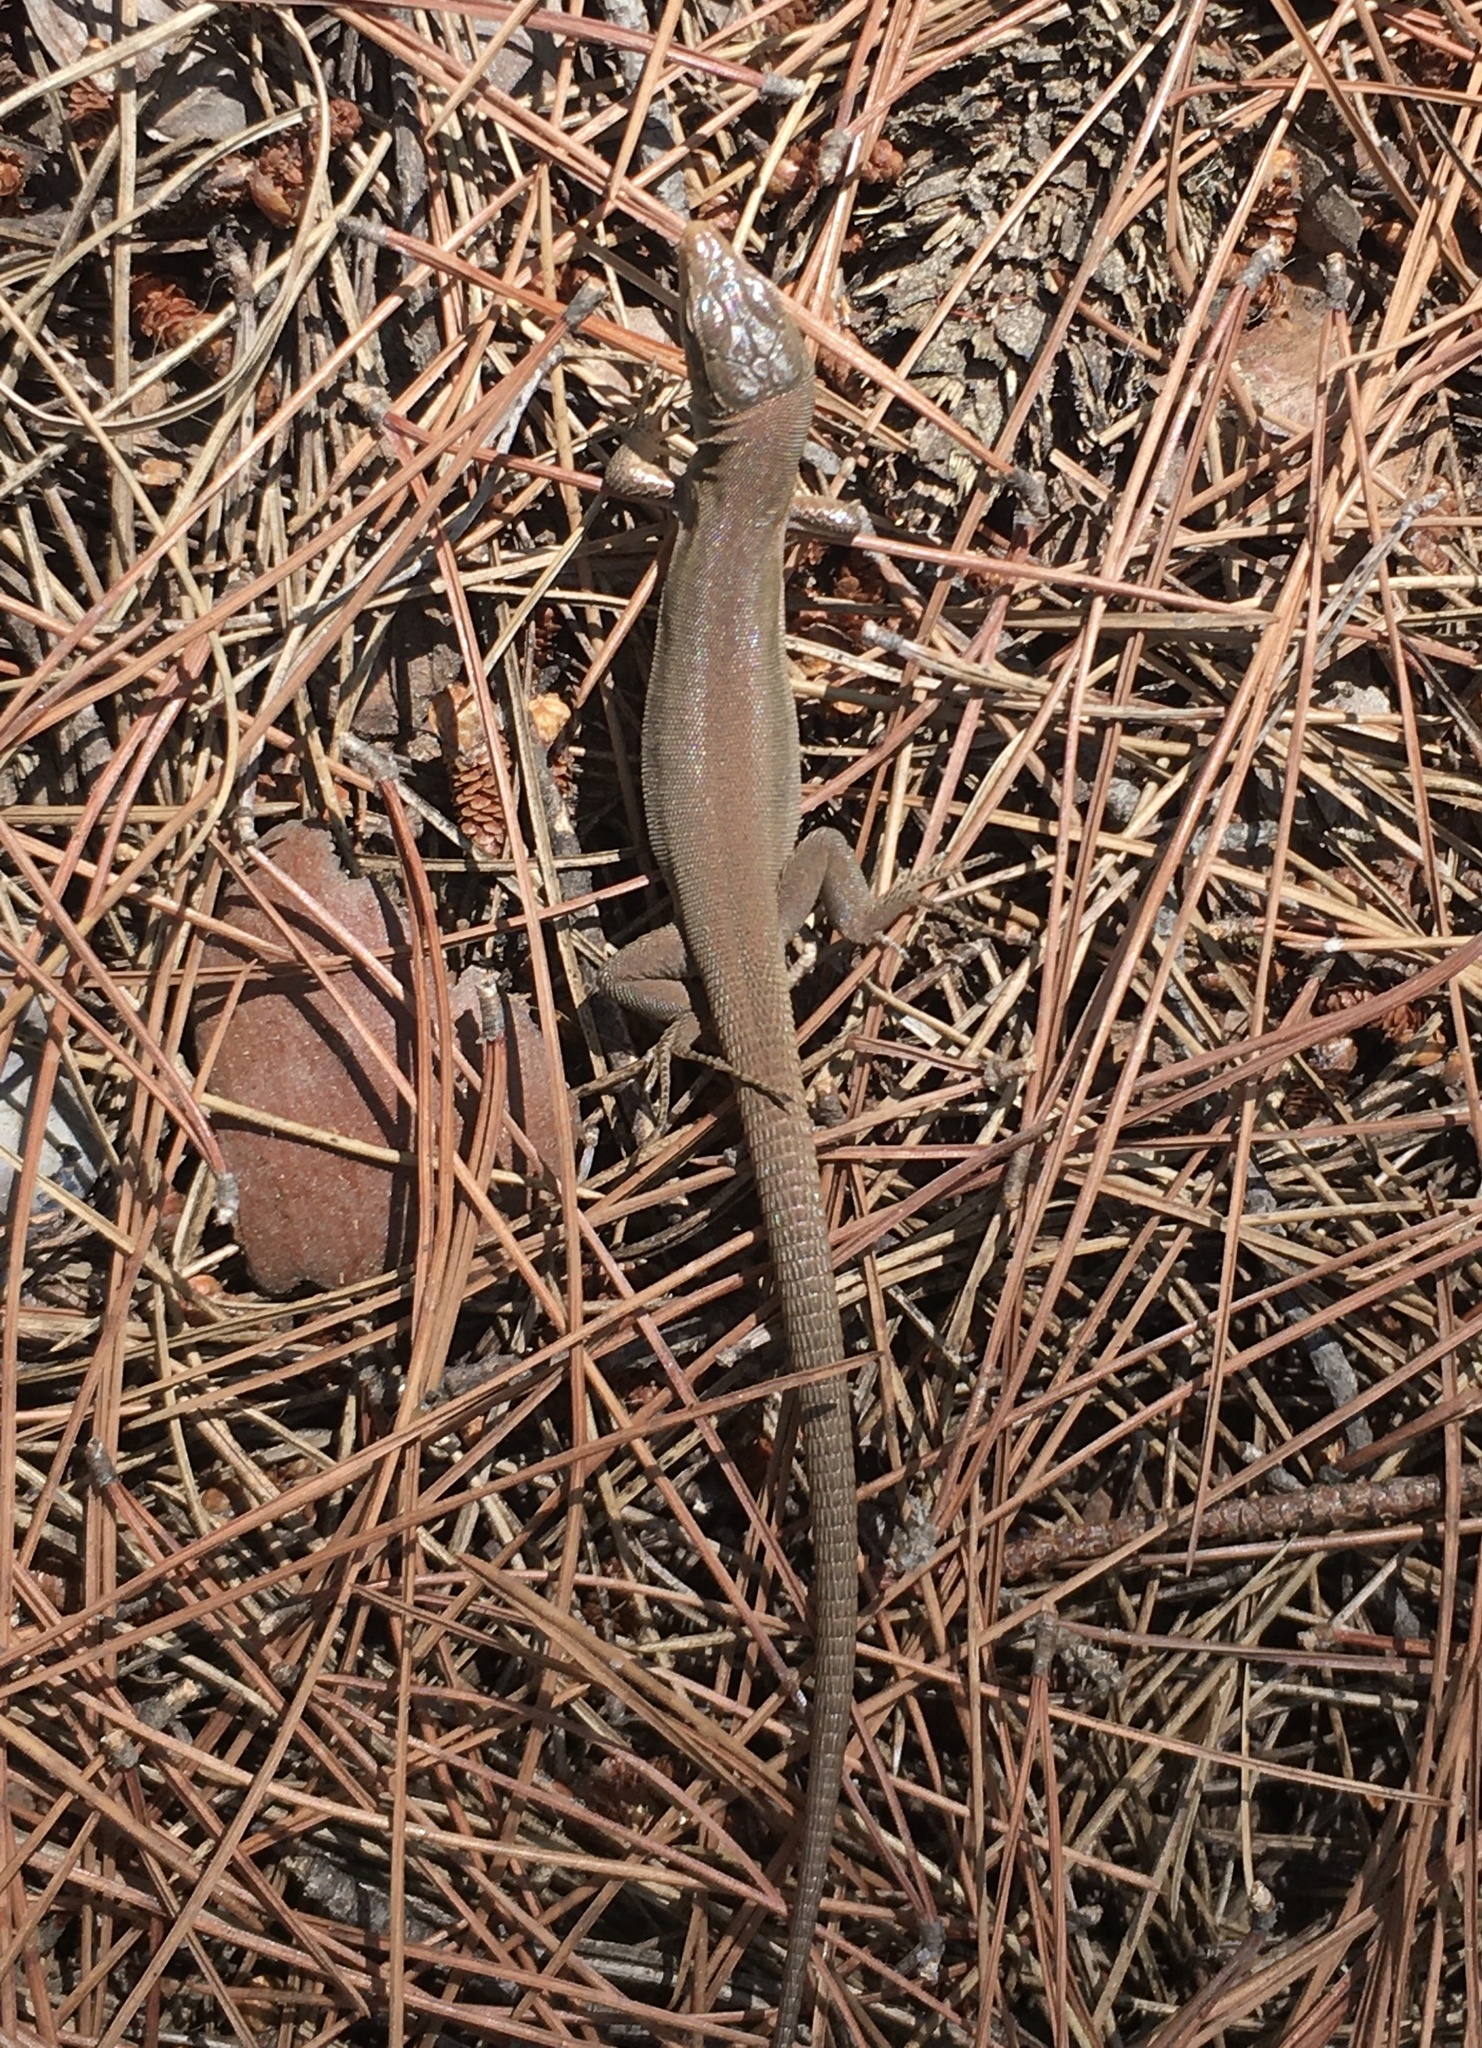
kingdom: Animalia
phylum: Chordata
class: Squamata
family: Lacertidae
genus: Podarcis
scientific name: Podarcis melisellensis
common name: Dalmatian wall lizard
